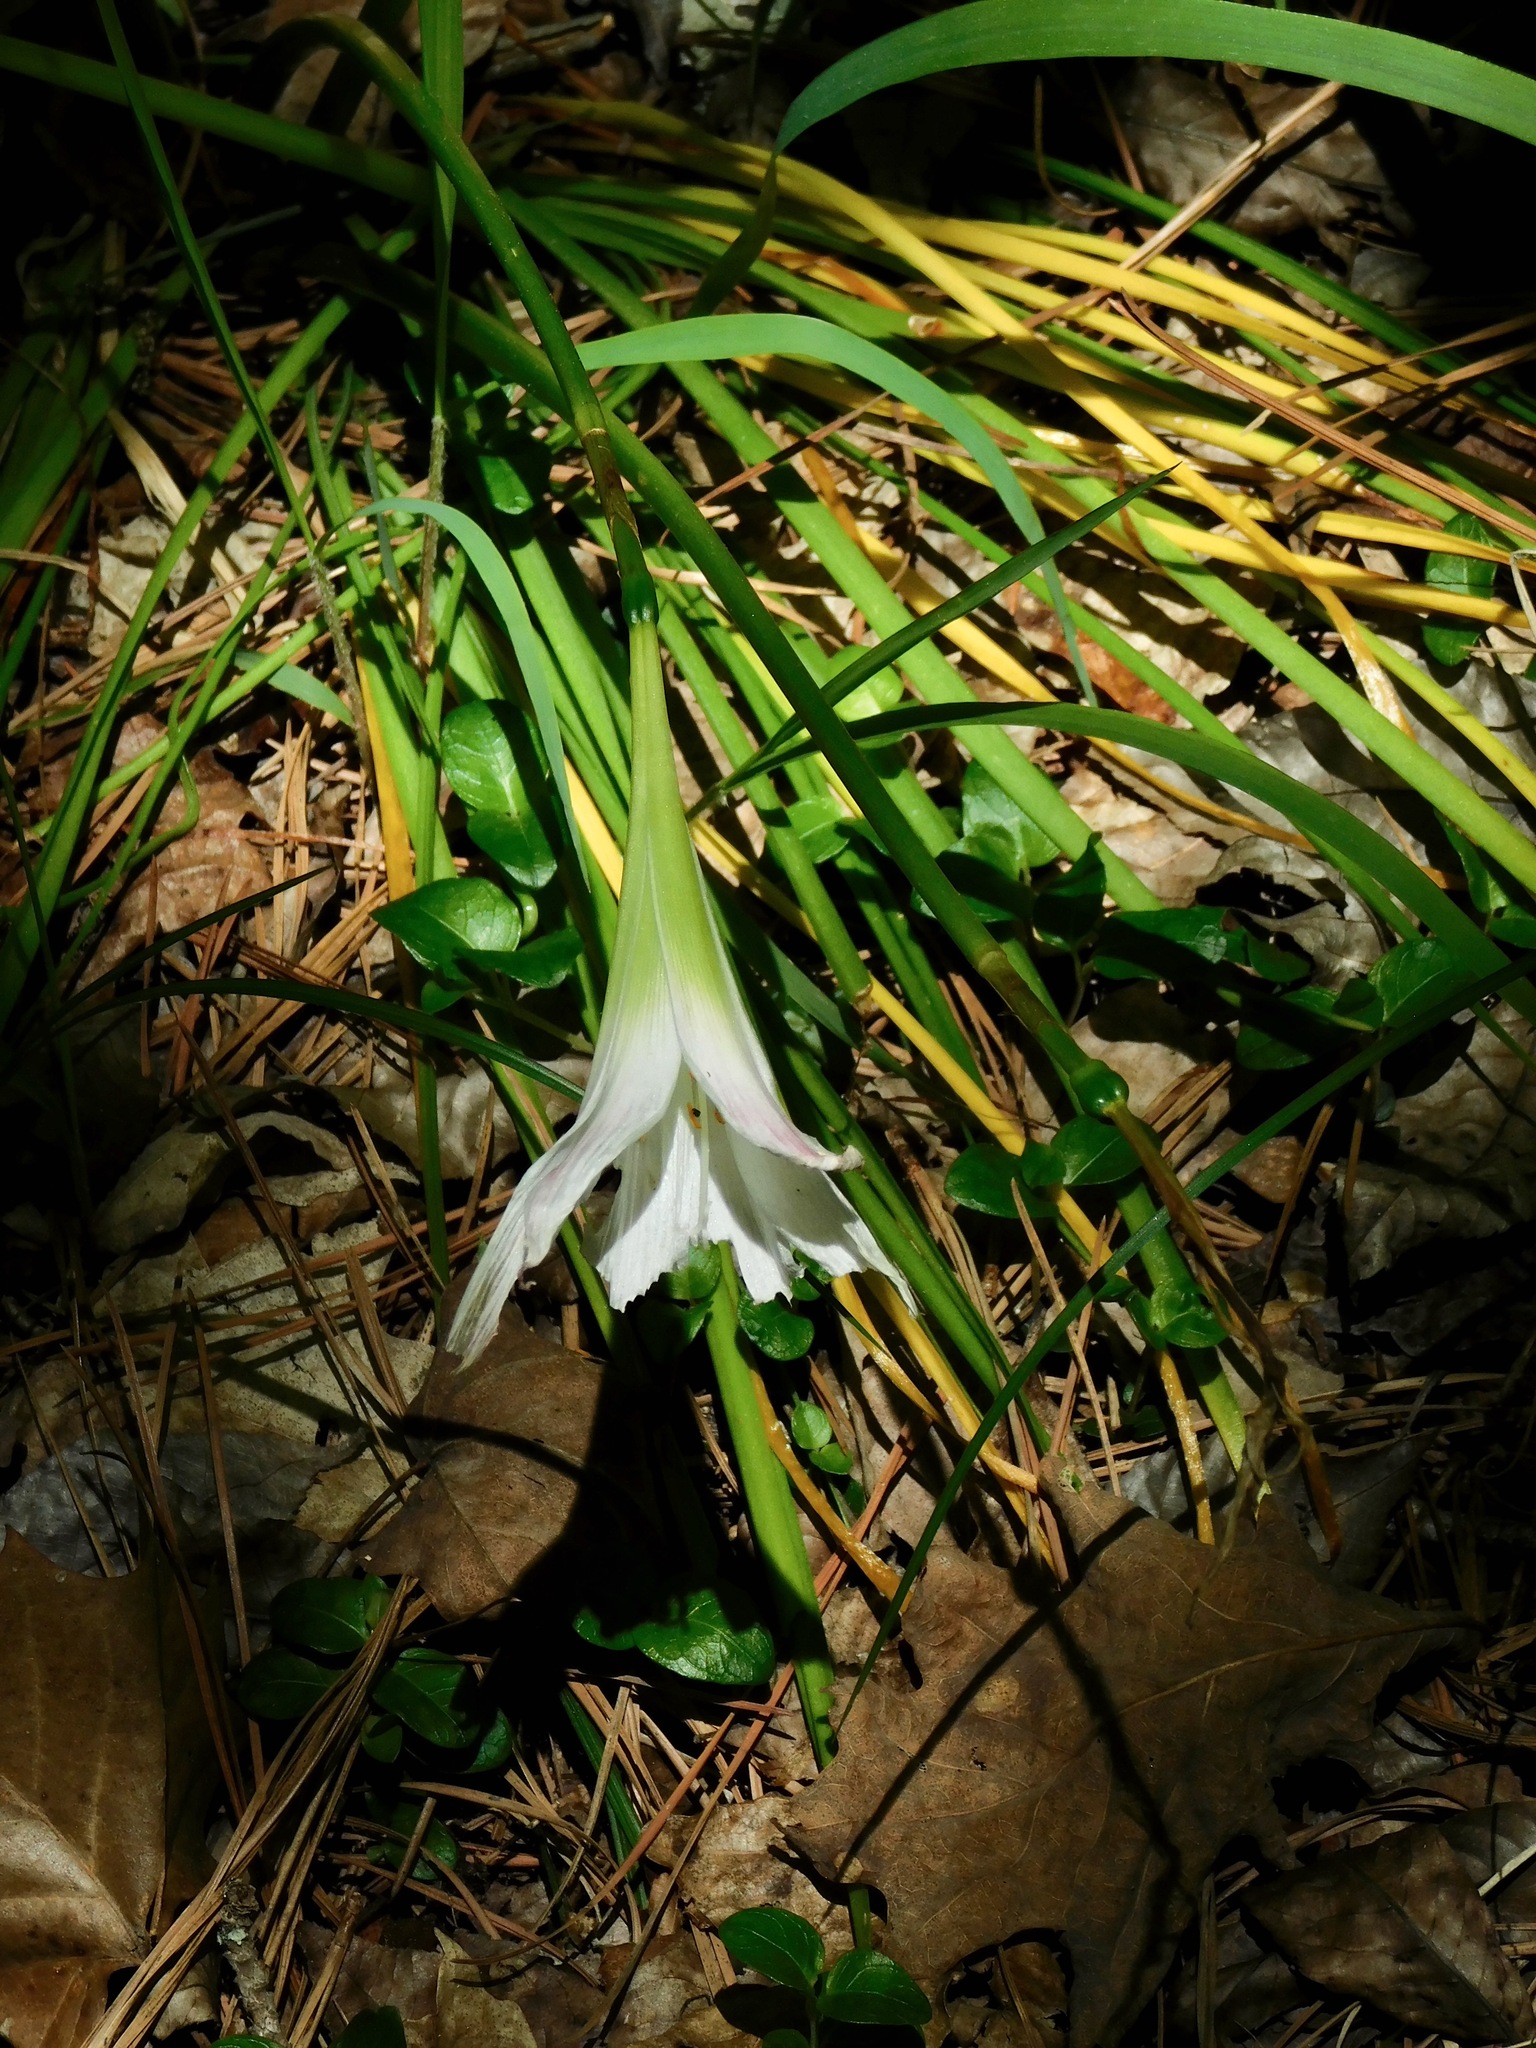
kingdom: Plantae
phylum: Tracheophyta
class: Liliopsida
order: Asparagales
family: Amaryllidaceae
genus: Zephyranthes
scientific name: Zephyranthes atamasco
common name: Atamasco lily
